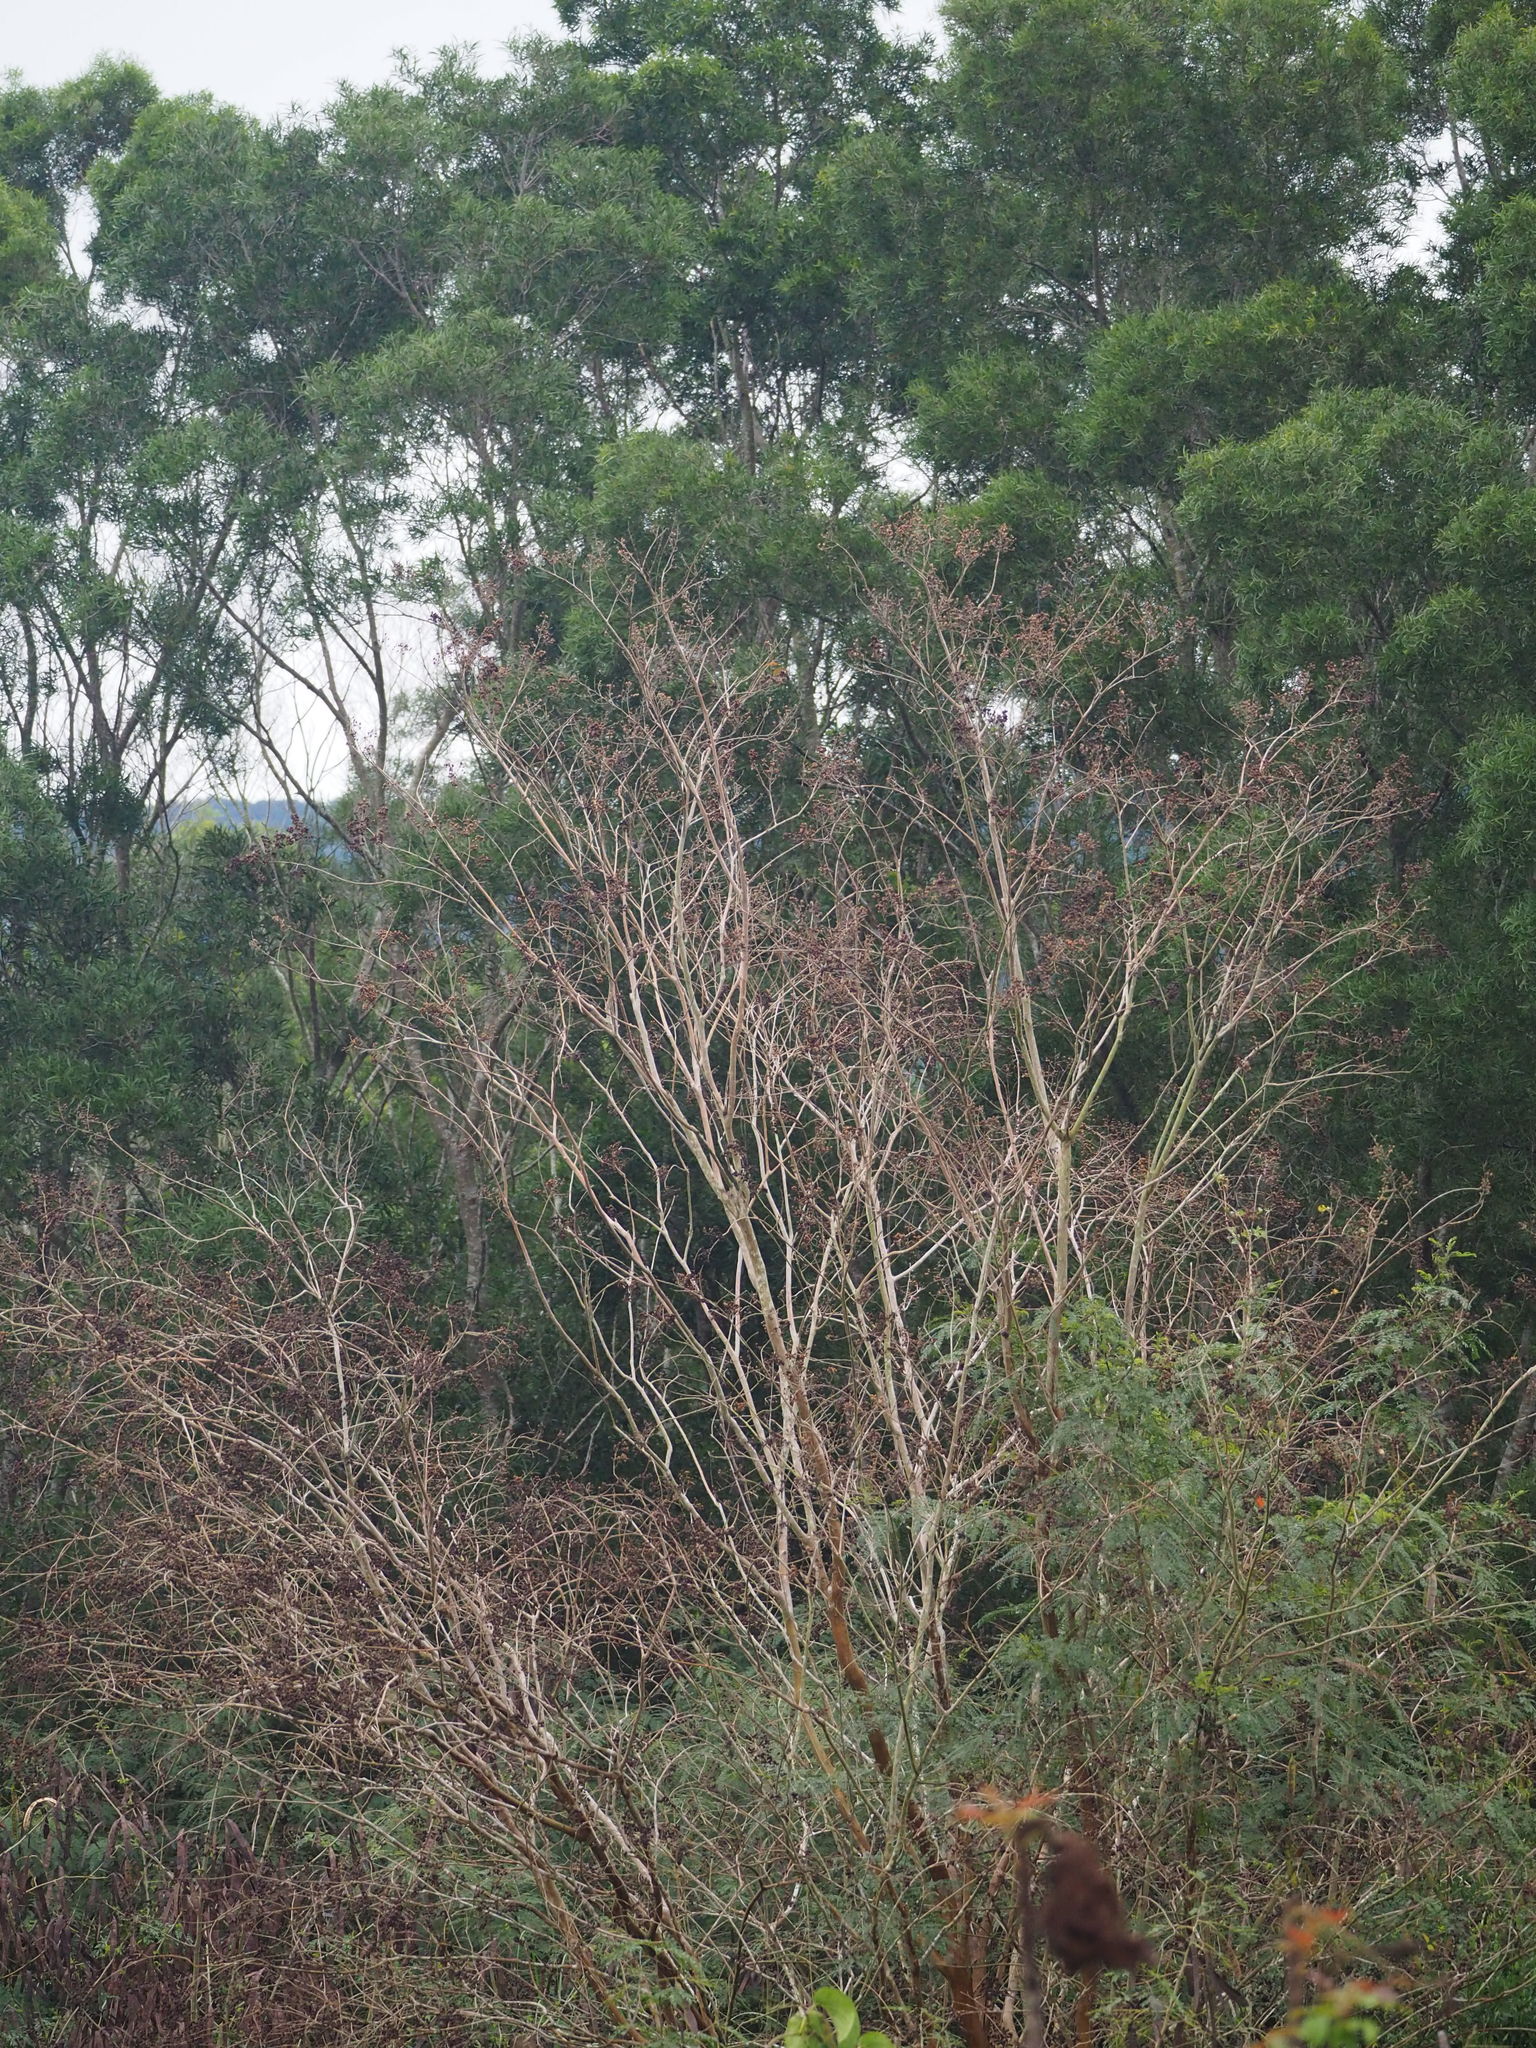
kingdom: Plantae
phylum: Tracheophyta
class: Magnoliopsida
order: Myrtales
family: Lythraceae
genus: Lagerstroemia
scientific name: Lagerstroemia subcostata
